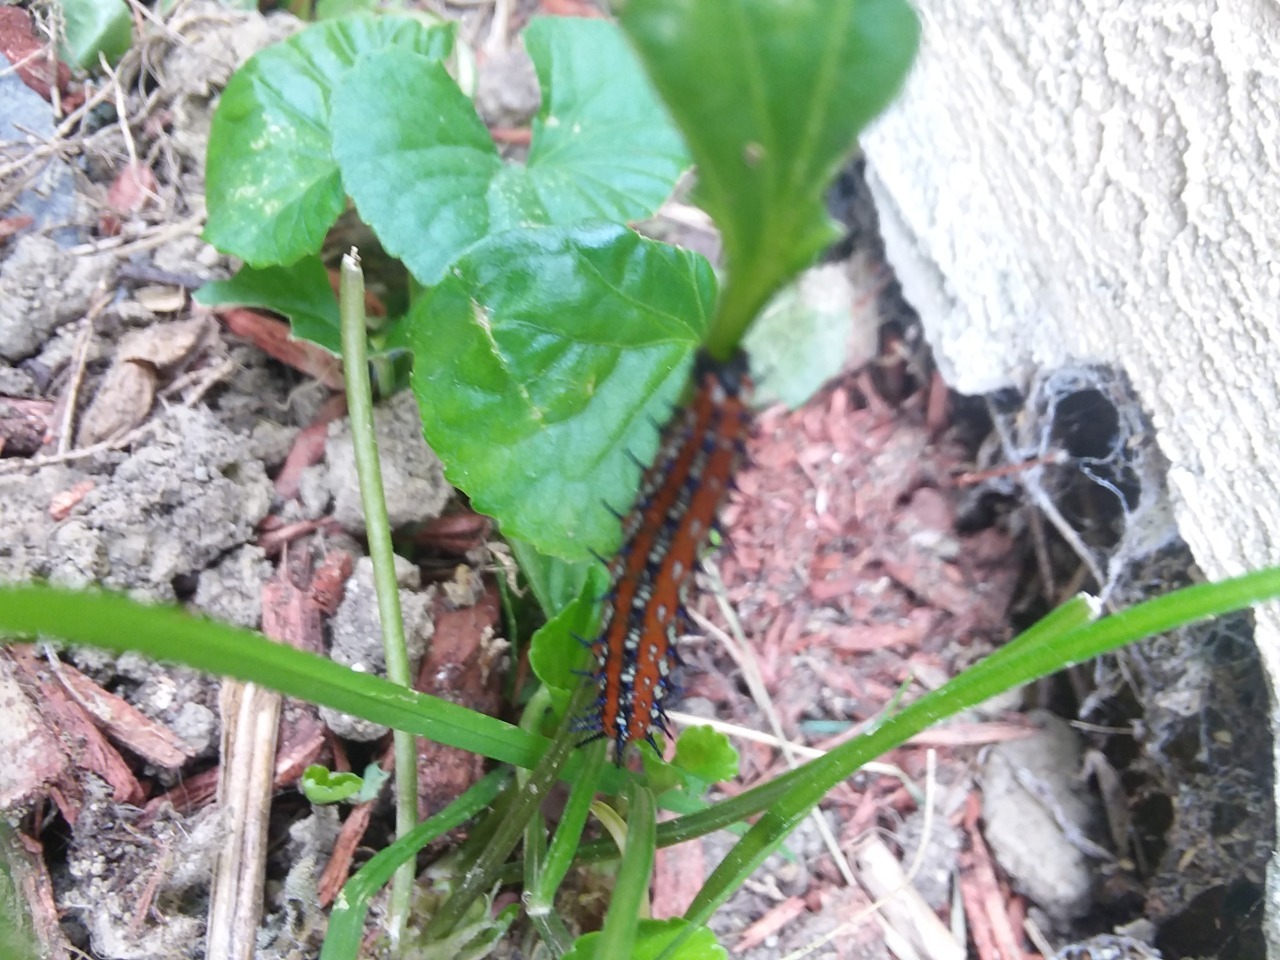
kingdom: Animalia
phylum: Arthropoda
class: Insecta
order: Lepidoptera
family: Nymphalidae
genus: Euptoieta
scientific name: Euptoieta claudia
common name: Variegated fritillary
